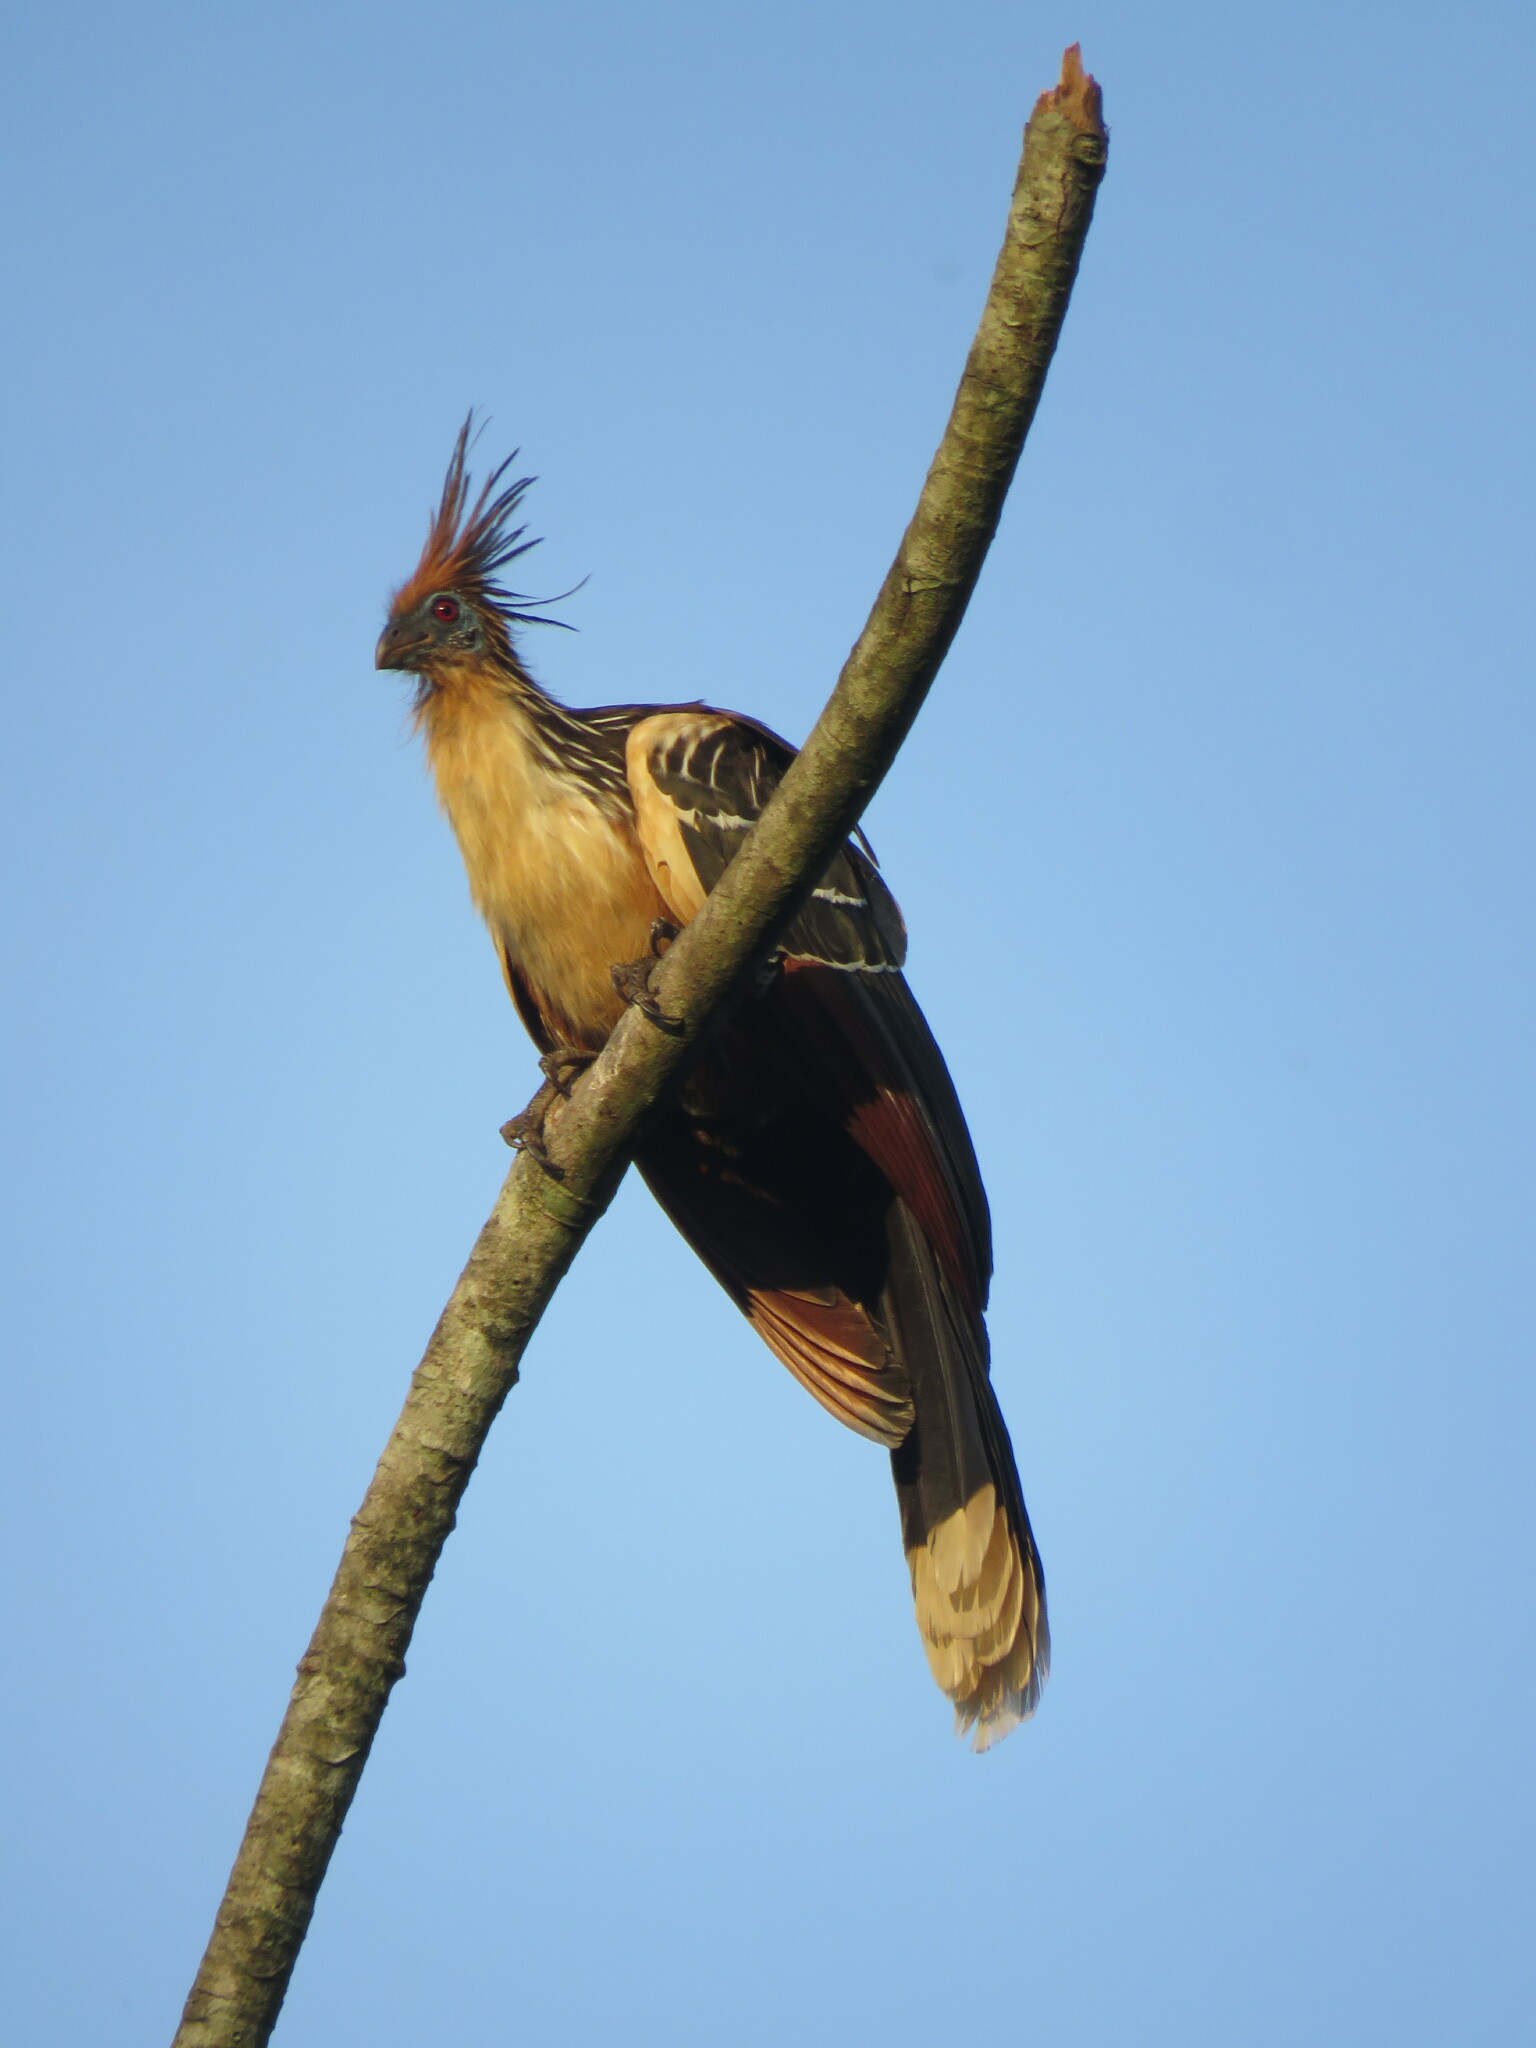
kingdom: Animalia
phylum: Chordata
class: Aves
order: Opisthocomiformes
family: Opisthocomidae
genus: Opisthocomus
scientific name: Opisthocomus hoazin
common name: Hoatzin
